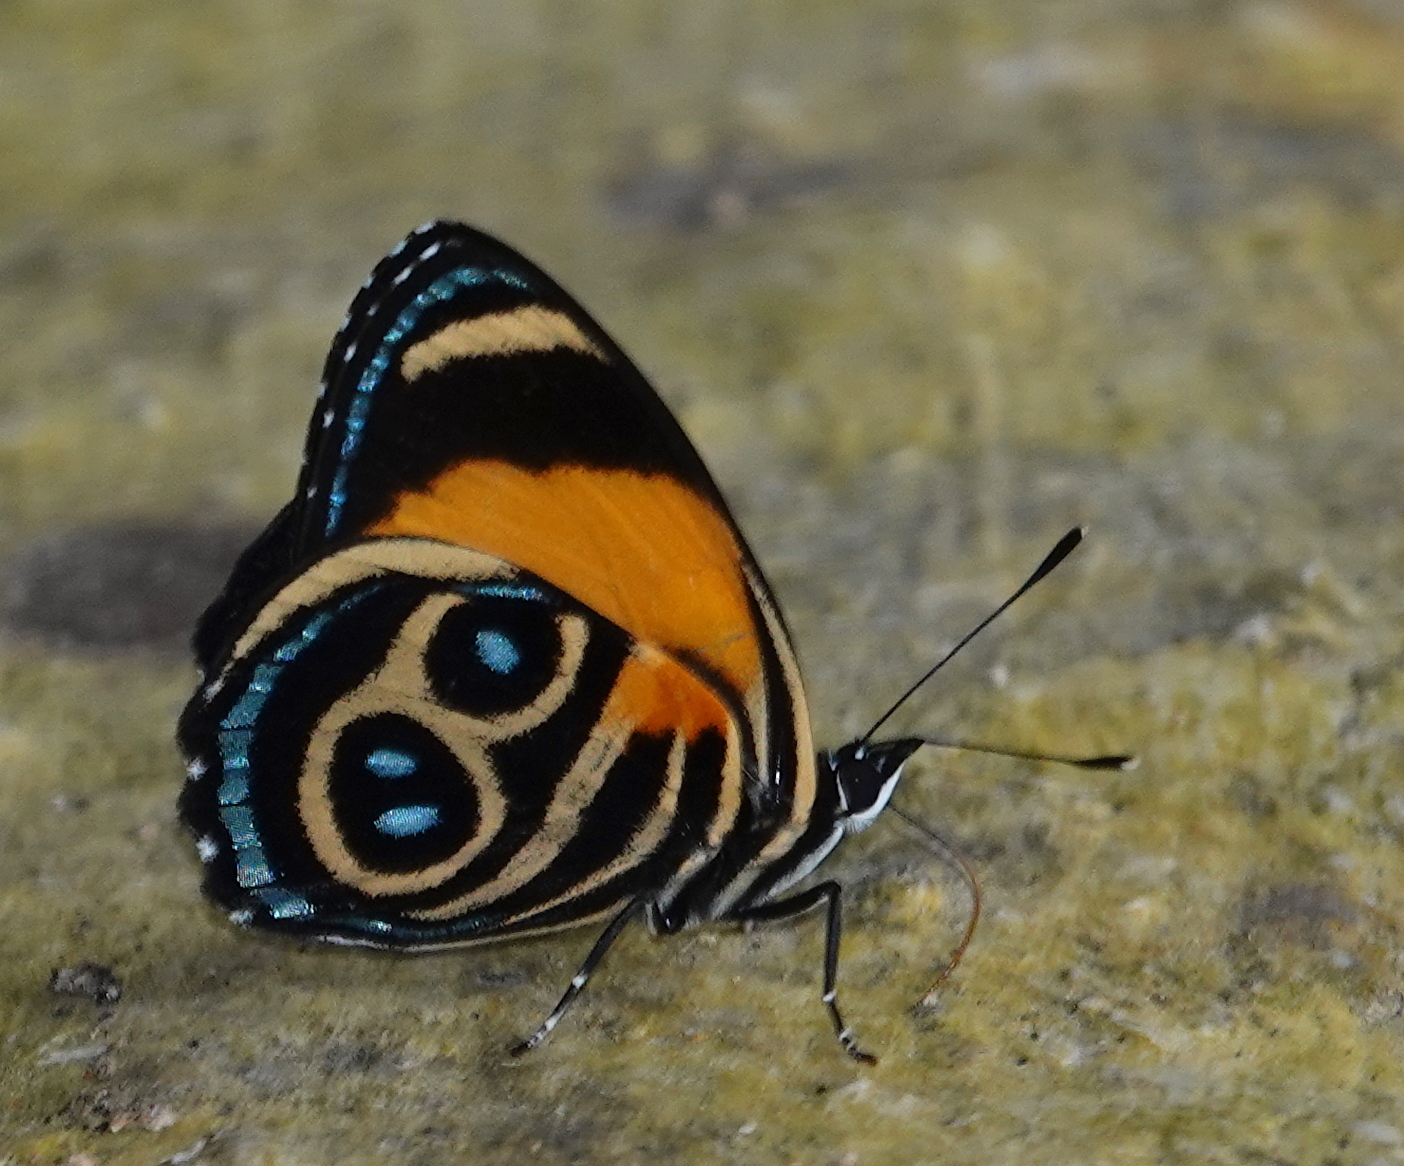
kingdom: Animalia
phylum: Arthropoda
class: Insecta
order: Lepidoptera
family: Nymphalidae
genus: Catagramma
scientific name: Catagramma tolima
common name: Blue-and-orange eighty-eight
